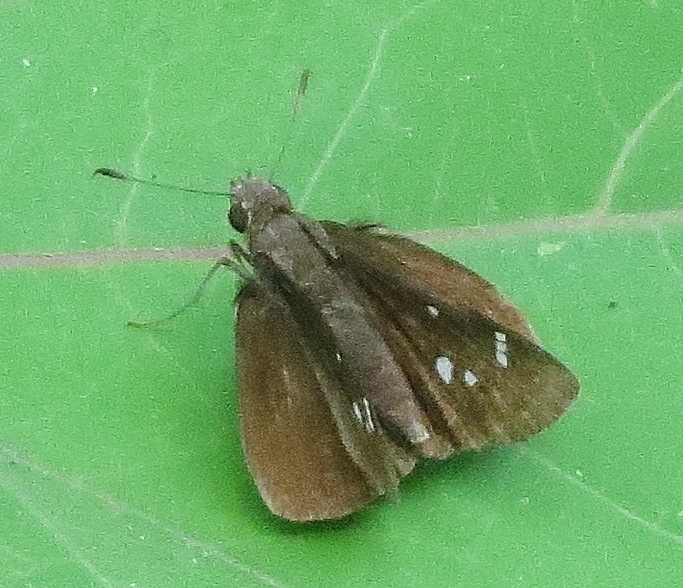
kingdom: Animalia
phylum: Arthropoda
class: Insecta
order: Lepidoptera
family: Hesperiidae
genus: Lerema
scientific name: Lerema accius
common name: Clouded skipper
